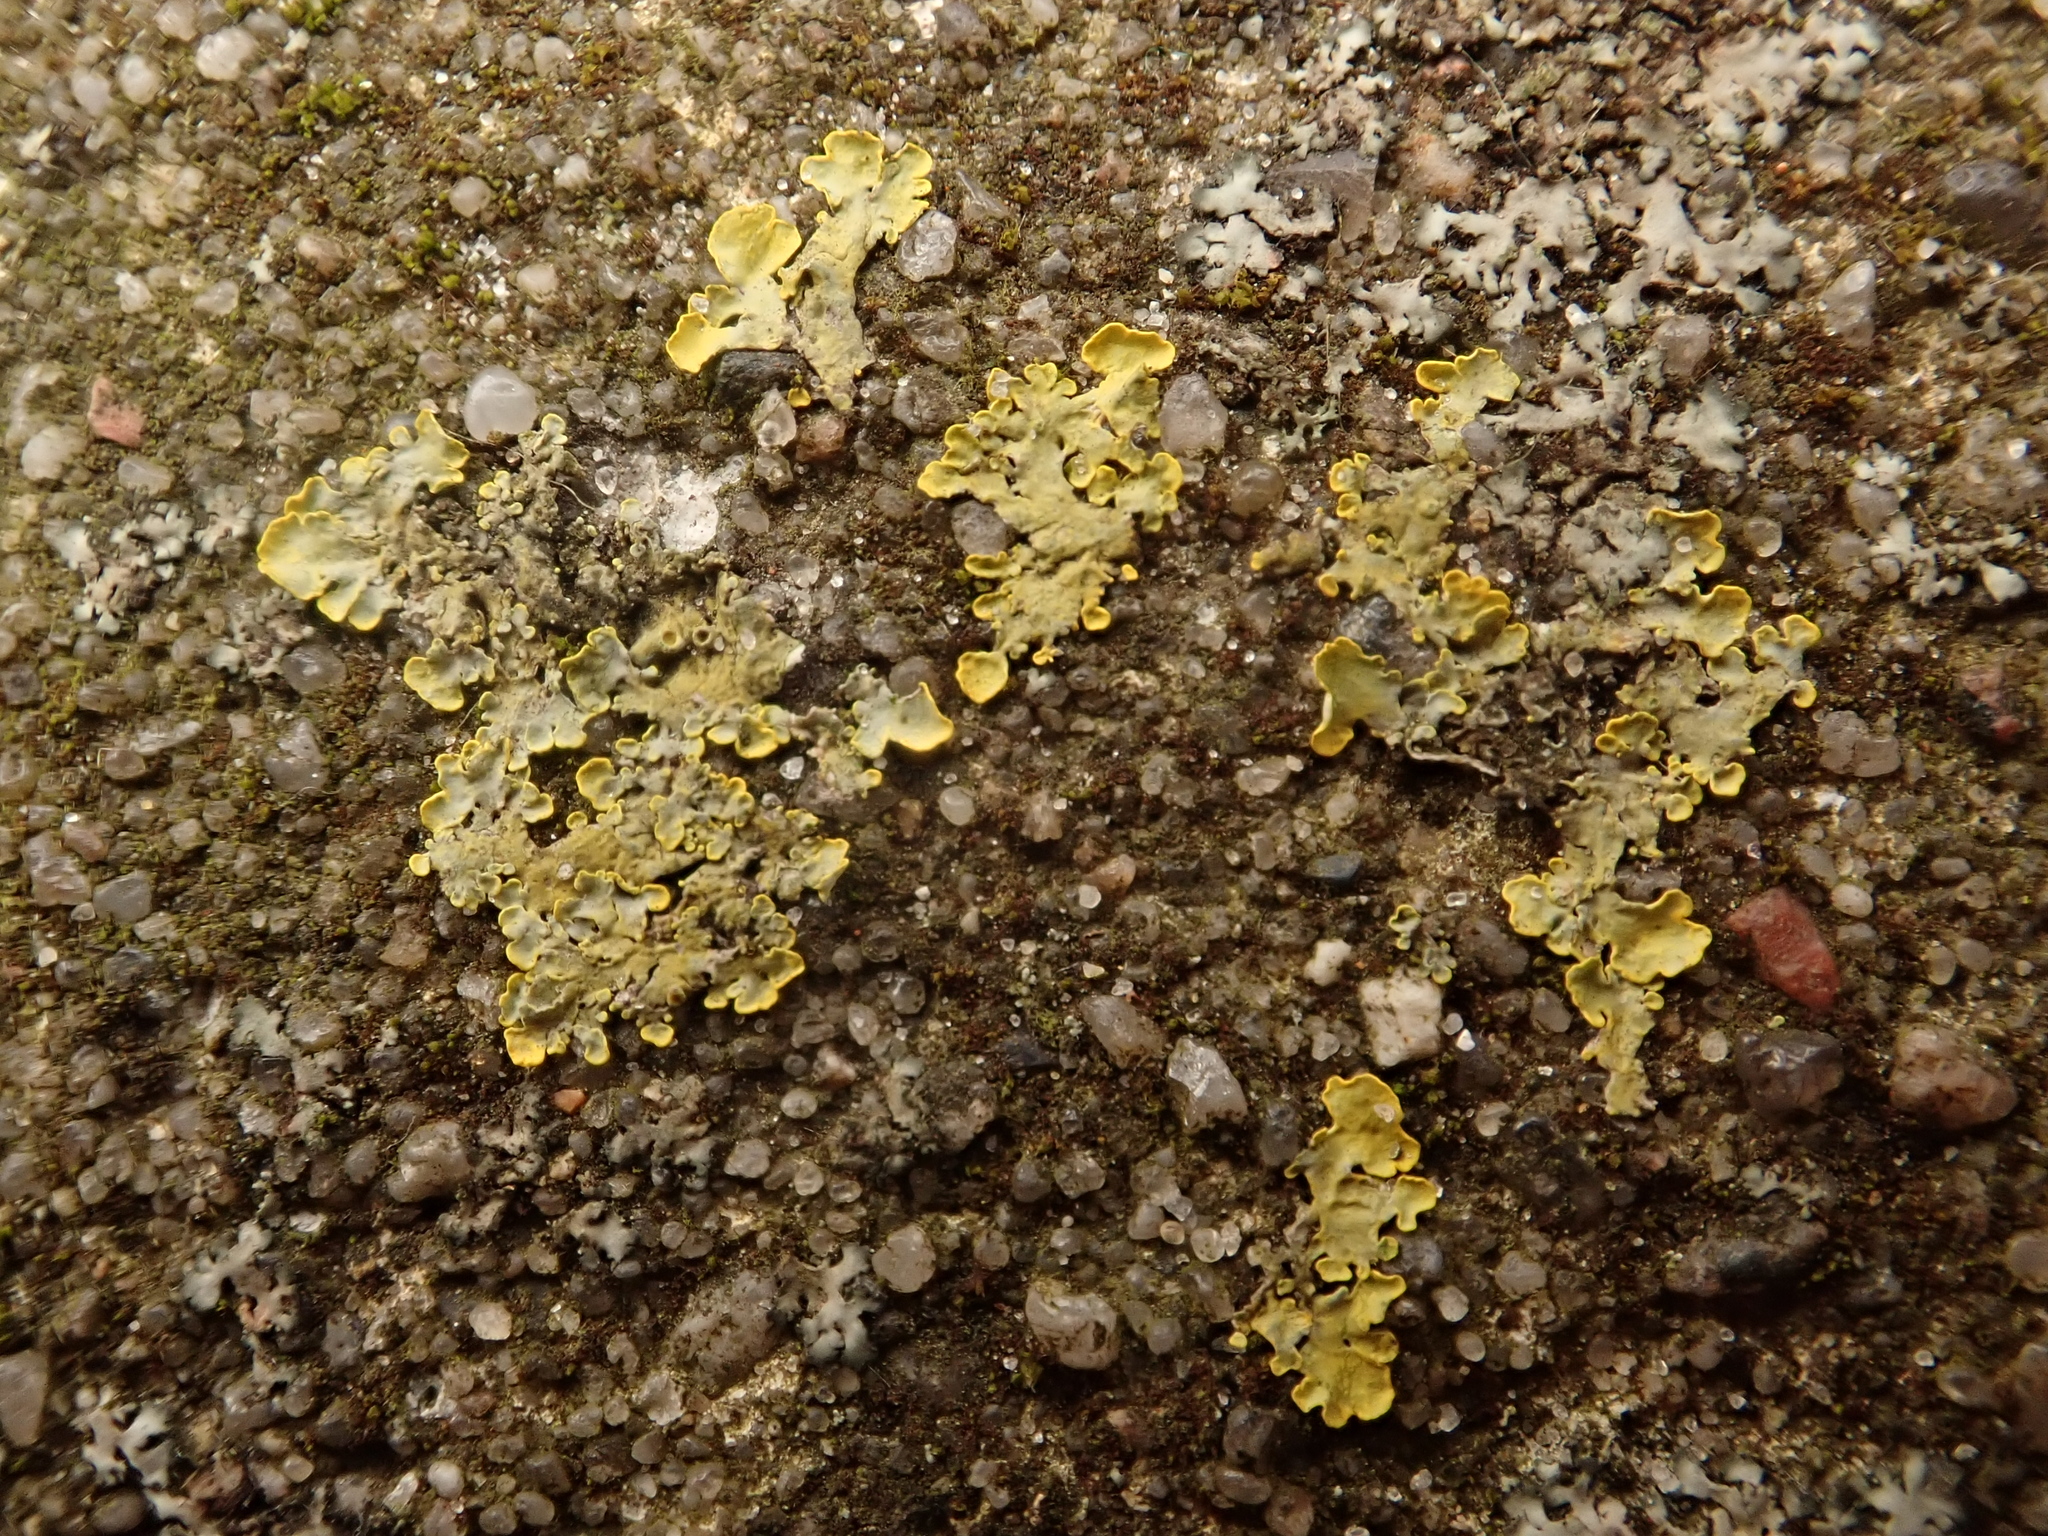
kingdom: Fungi
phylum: Ascomycota
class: Lecanoromycetes
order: Teloschistales
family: Teloschistaceae
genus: Xanthoria
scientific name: Xanthoria parietina
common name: Common orange lichen
